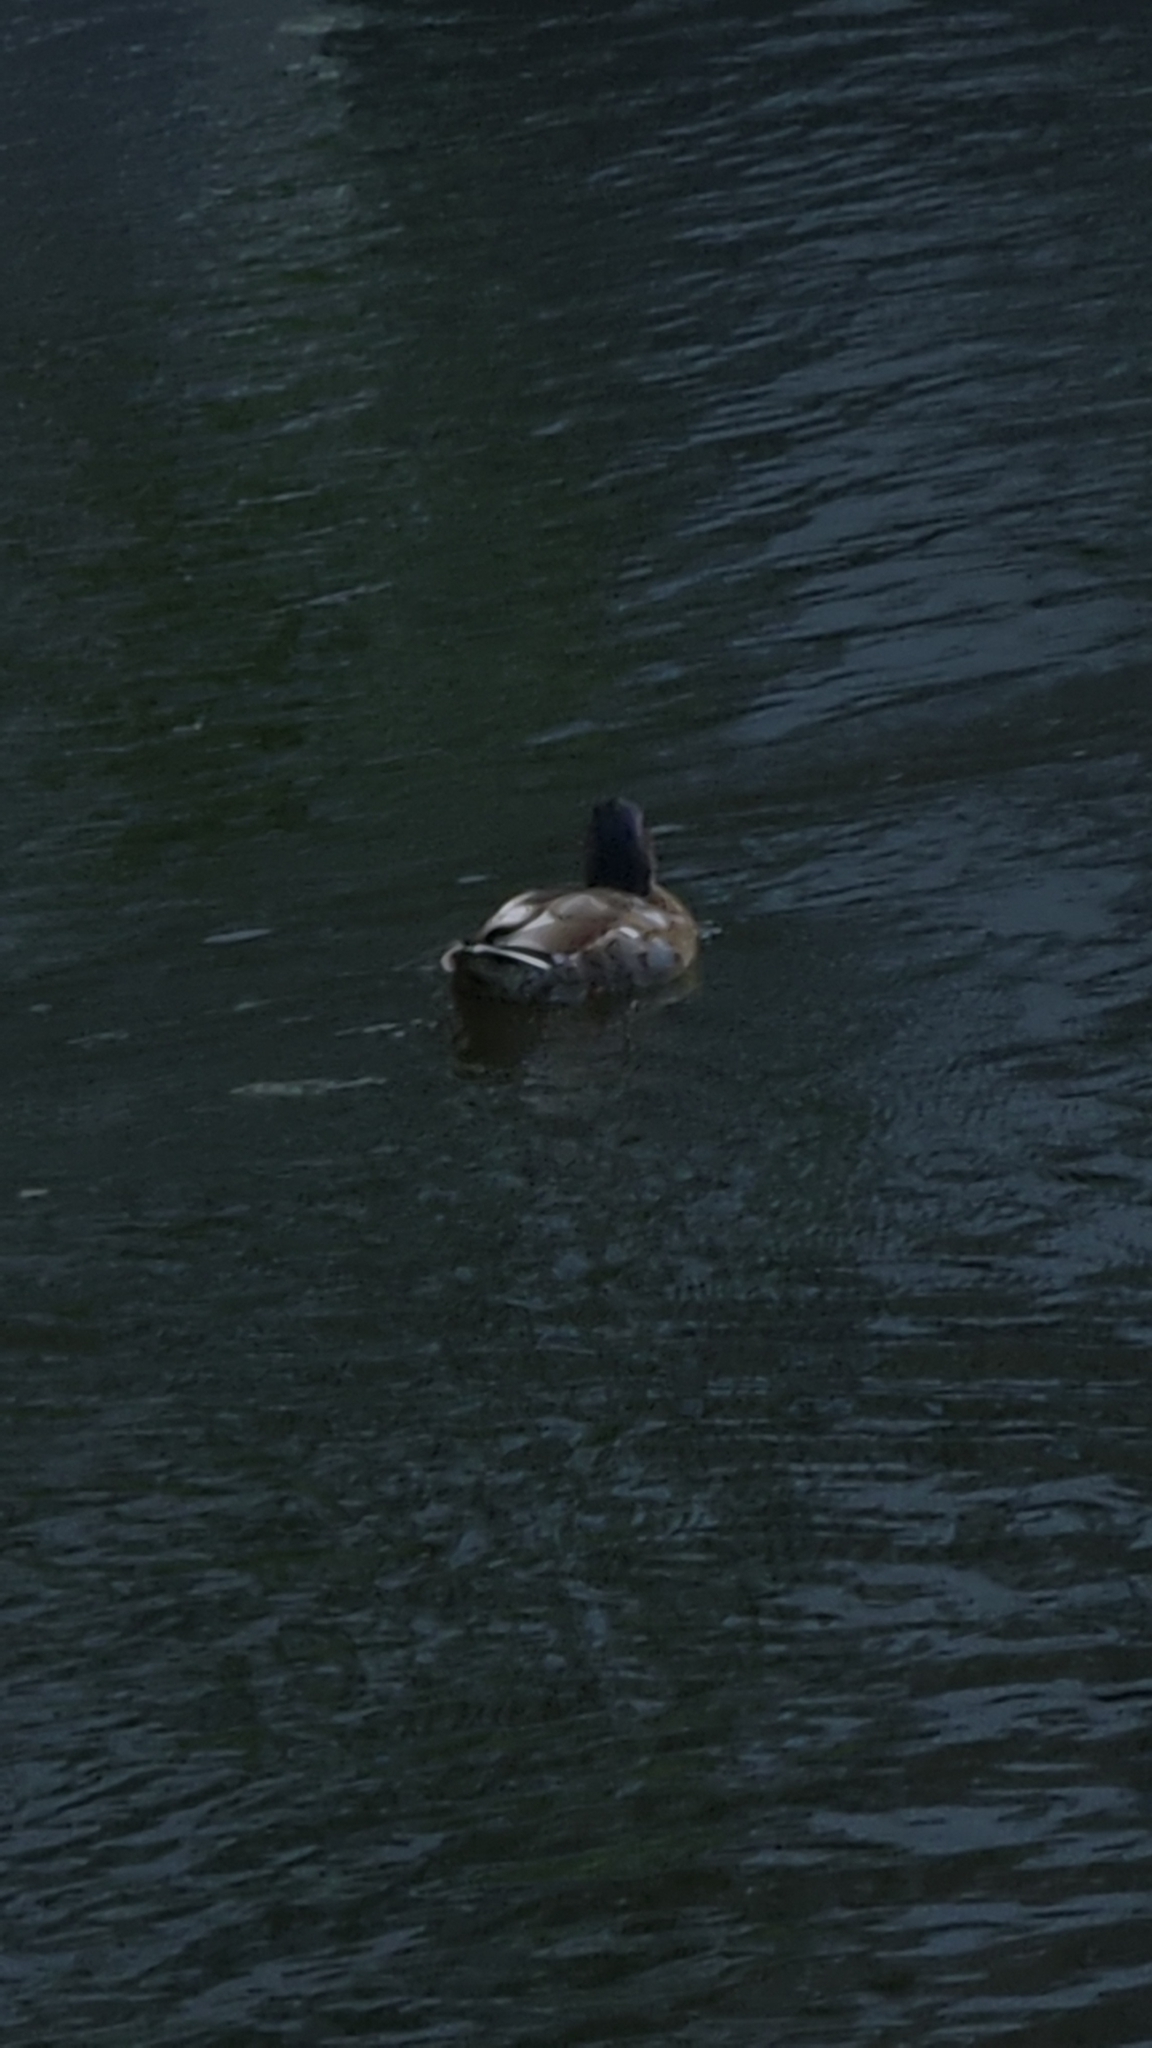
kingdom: Animalia
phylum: Chordata
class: Aves
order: Anseriformes
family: Anatidae
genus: Anas
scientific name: Anas platyrhynchos
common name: Mallard
